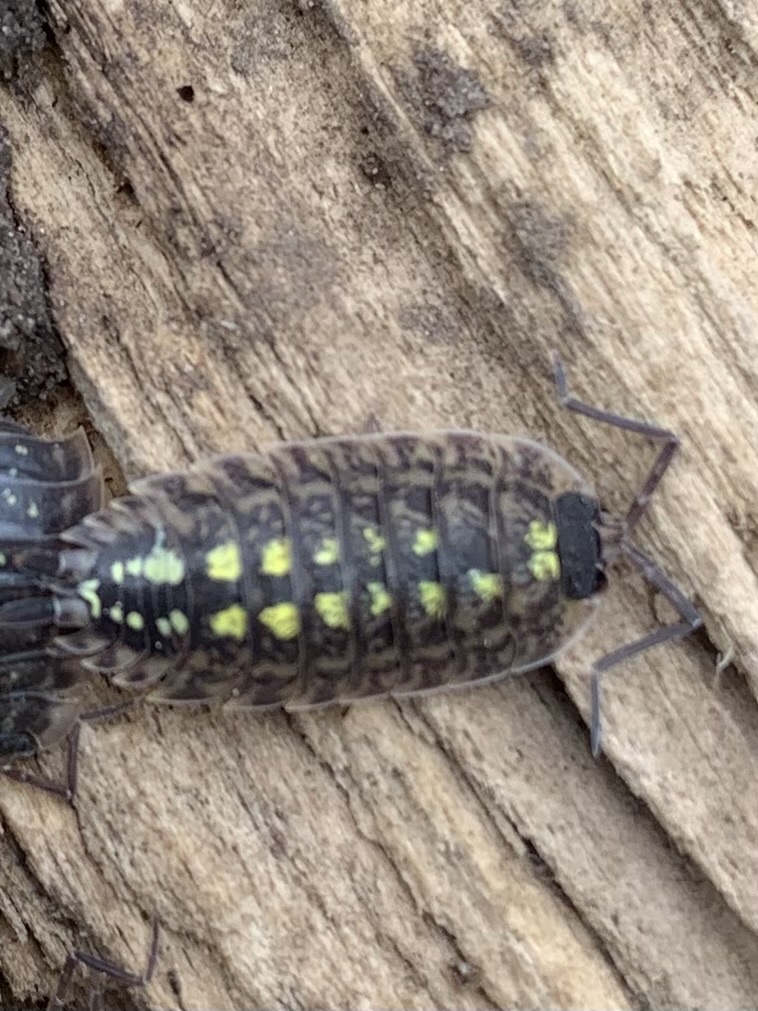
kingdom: Animalia
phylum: Arthropoda
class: Malacostraca
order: Isopoda
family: Porcellionidae
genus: Porcellio
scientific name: Porcellio spinicornis
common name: Painted woodlouse
